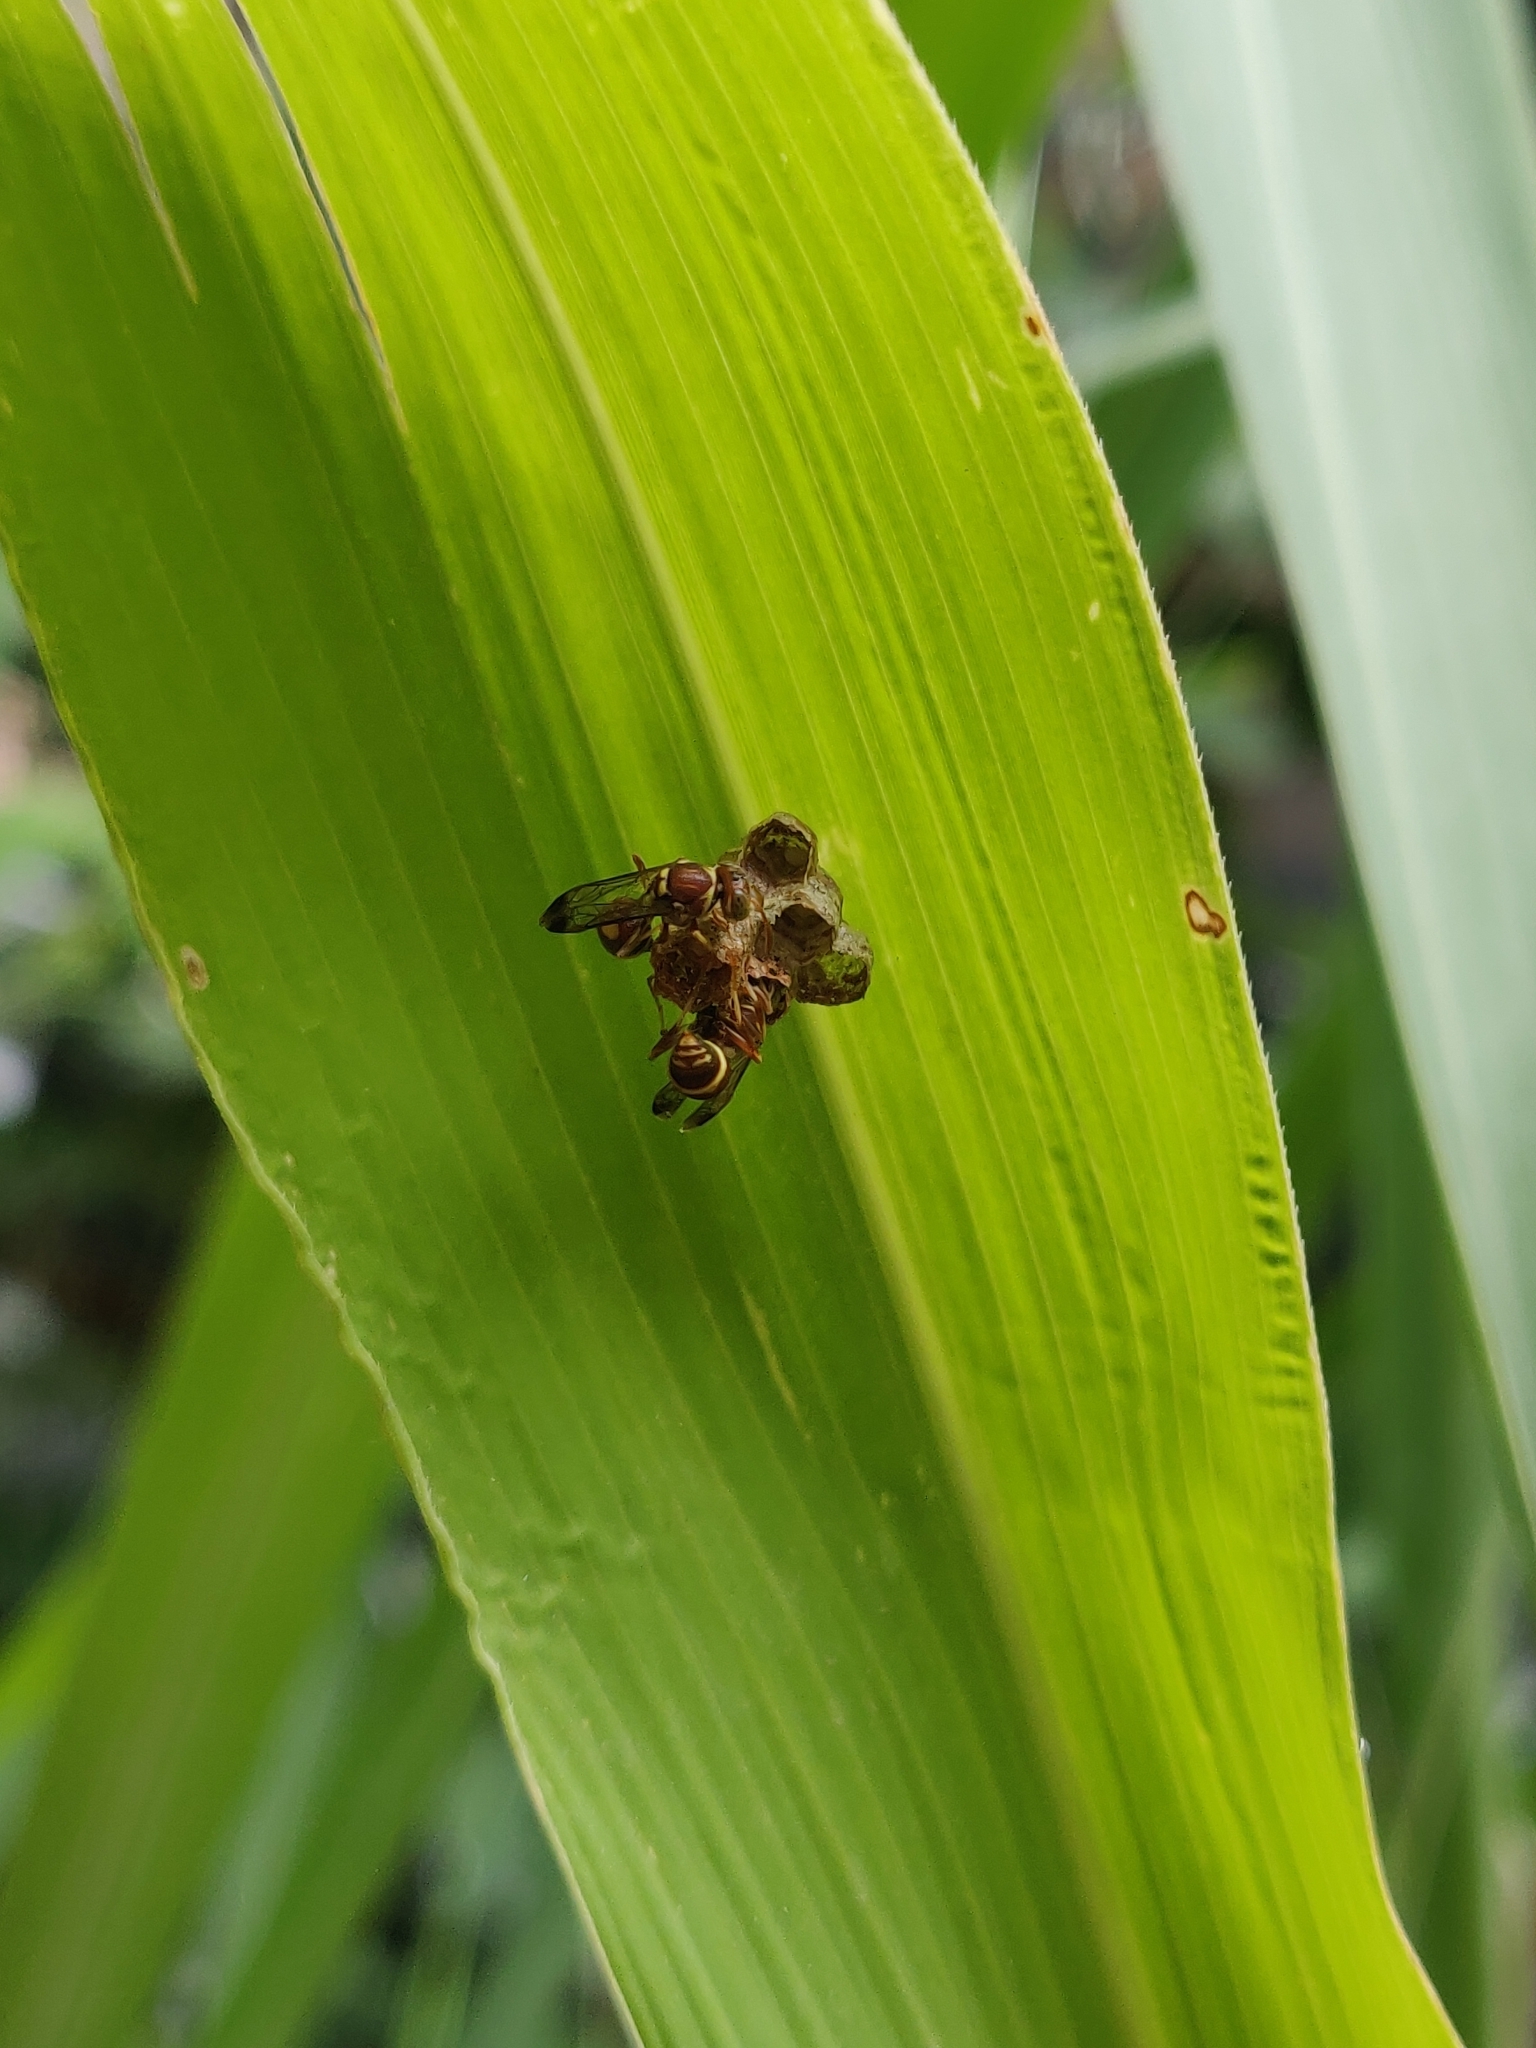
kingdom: Animalia
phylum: Arthropoda
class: Insecta
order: Hymenoptera
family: Vespidae
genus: Ropalidia
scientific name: Ropalidia cyathiformis
